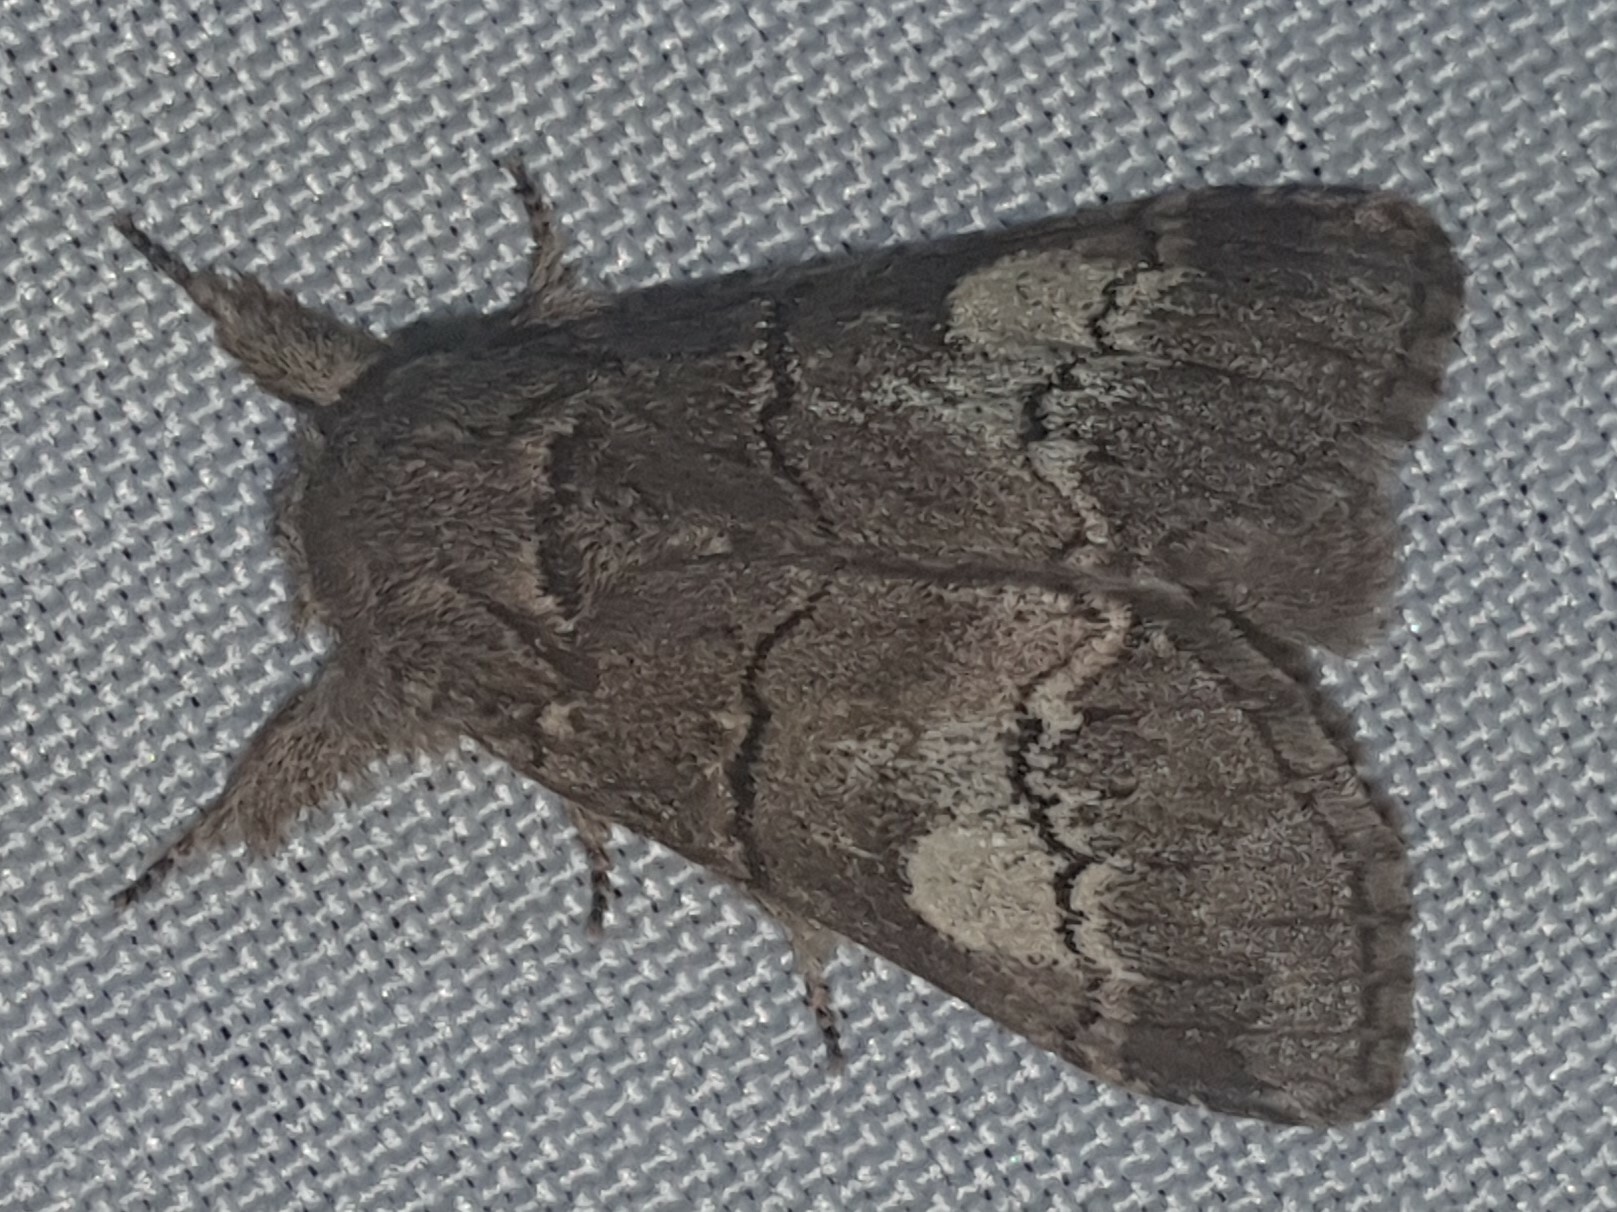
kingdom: Animalia
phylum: Arthropoda
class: Insecta
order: Lepidoptera
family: Notodontidae
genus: Drymonia
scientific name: Drymonia querna
